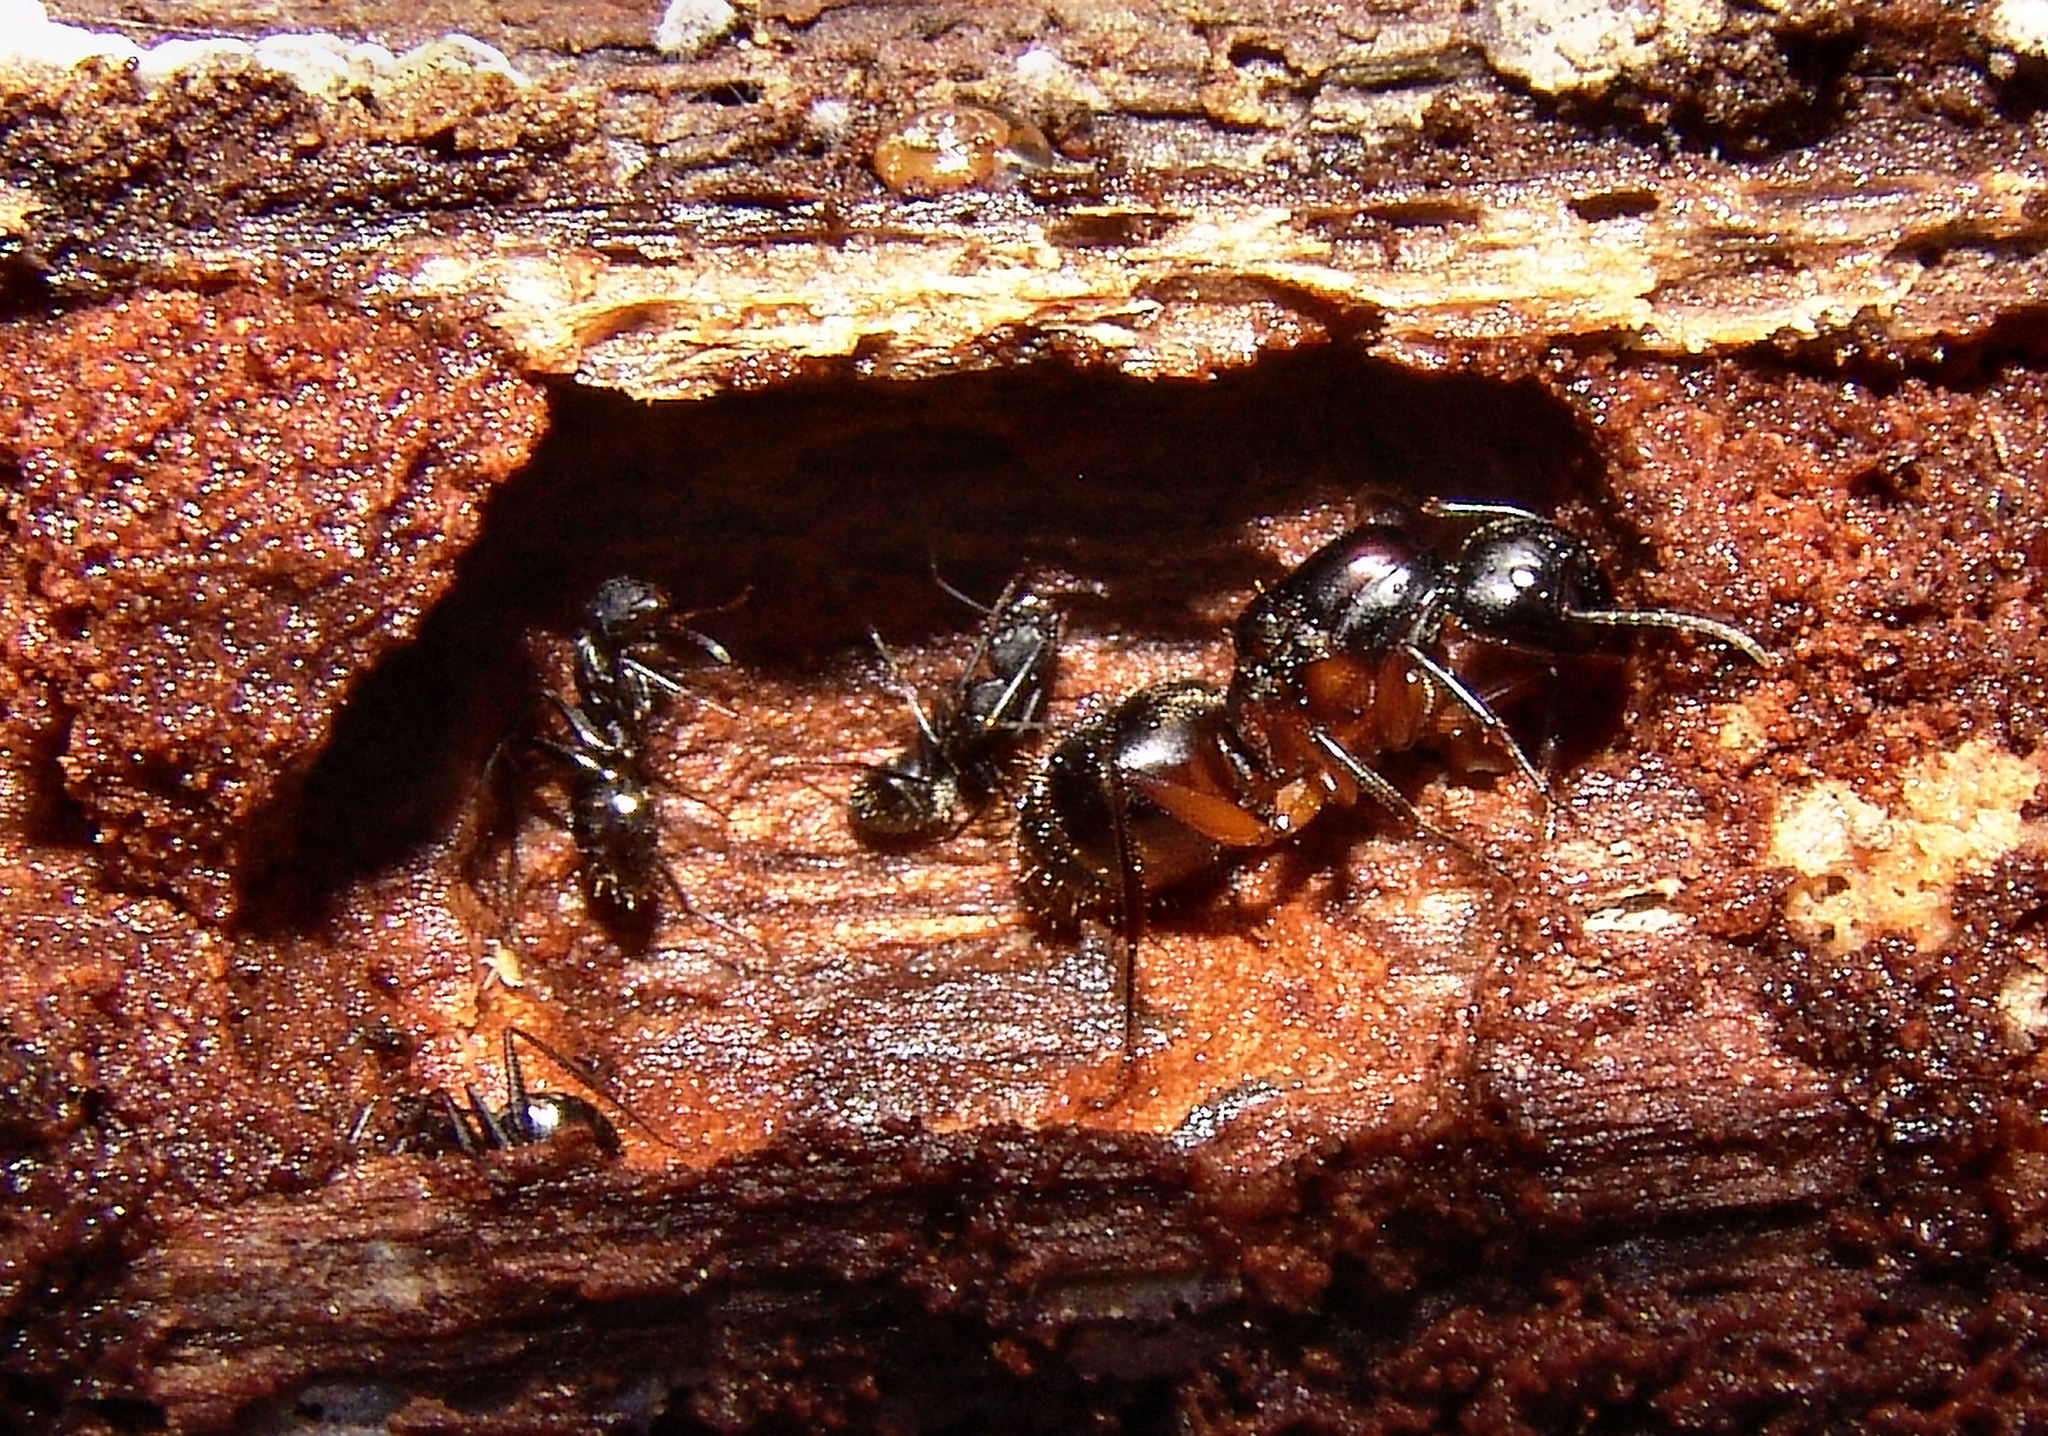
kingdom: Animalia
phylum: Arthropoda
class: Insecta
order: Hymenoptera
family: Formicidae
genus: Camponotus
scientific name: Camponotus chromaiodes
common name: Red carpenter ant
